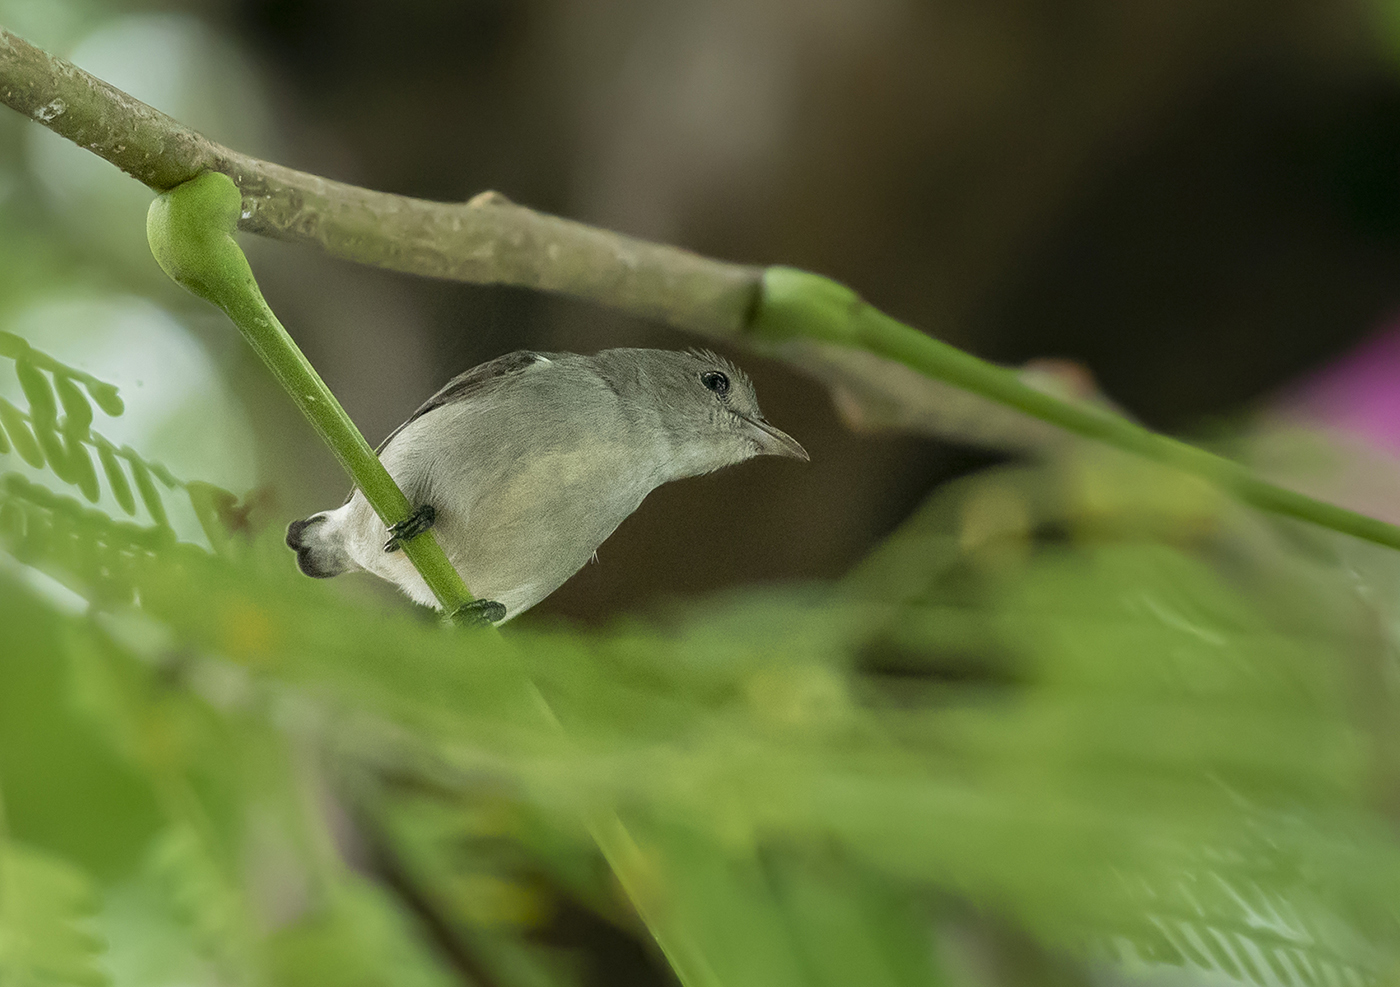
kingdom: Animalia
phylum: Chordata
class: Aves
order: Passeriformes
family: Dicaeidae
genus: Dicaeum
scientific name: Dicaeum erythrorhynchos
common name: Pale-billed flowerpecker
